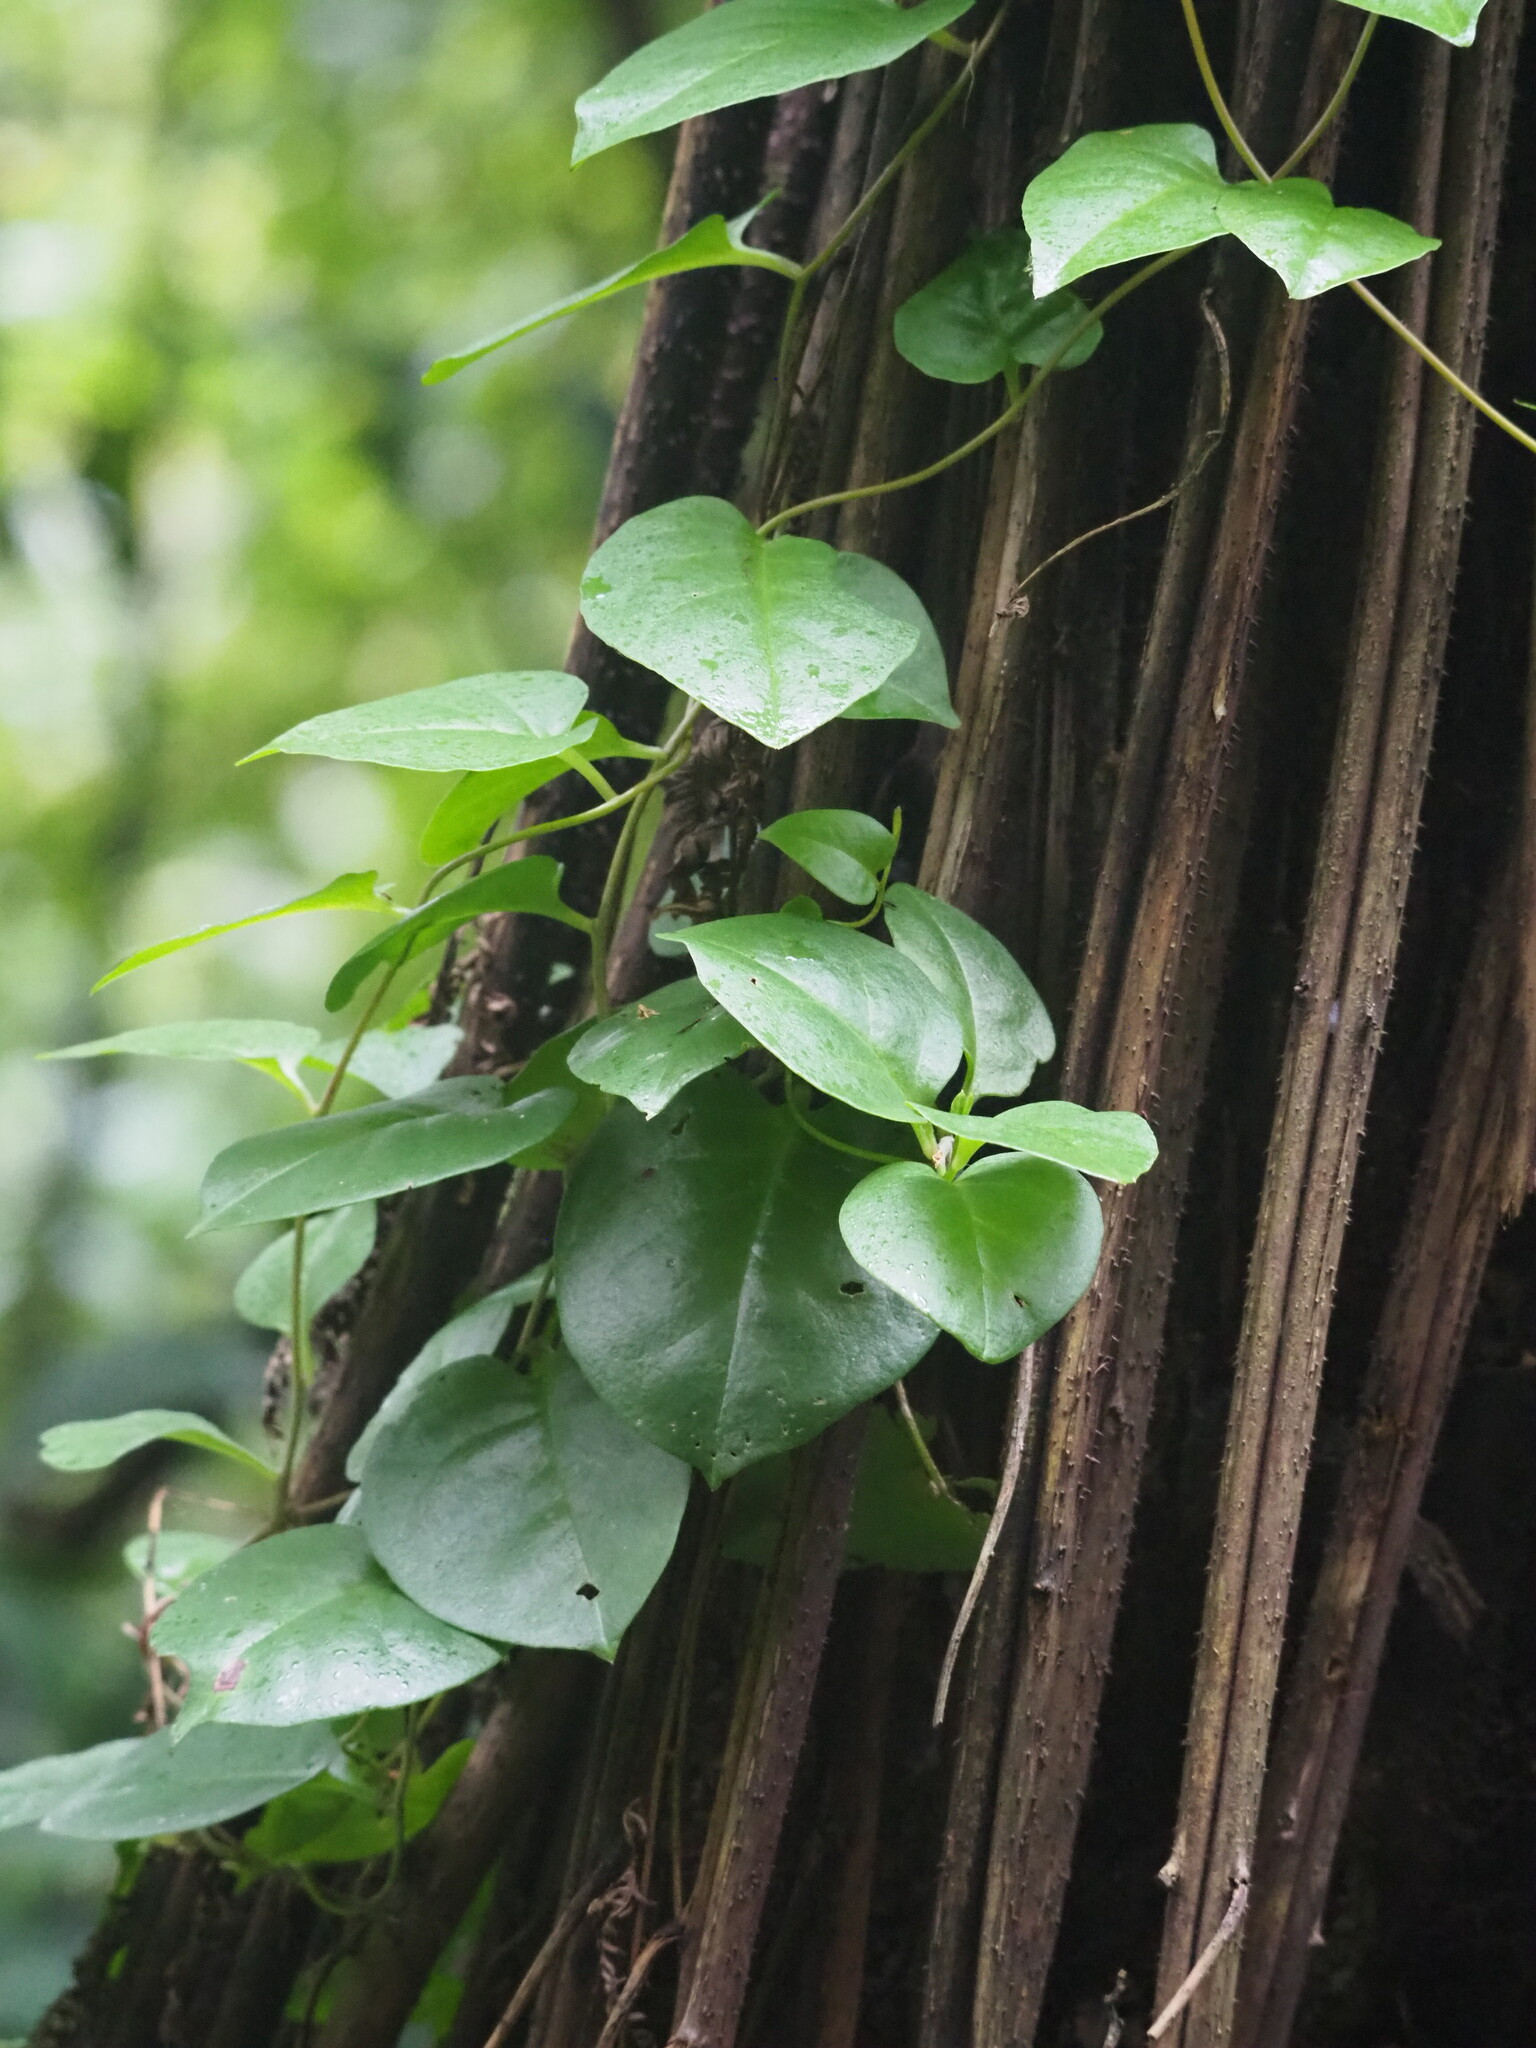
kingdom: Plantae
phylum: Tracheophyta
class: Magnoliopsida
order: Caryophyllales
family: Basellaceae
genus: Anredera
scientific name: Anredera cordifolia
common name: Heartleaf madeiravine
